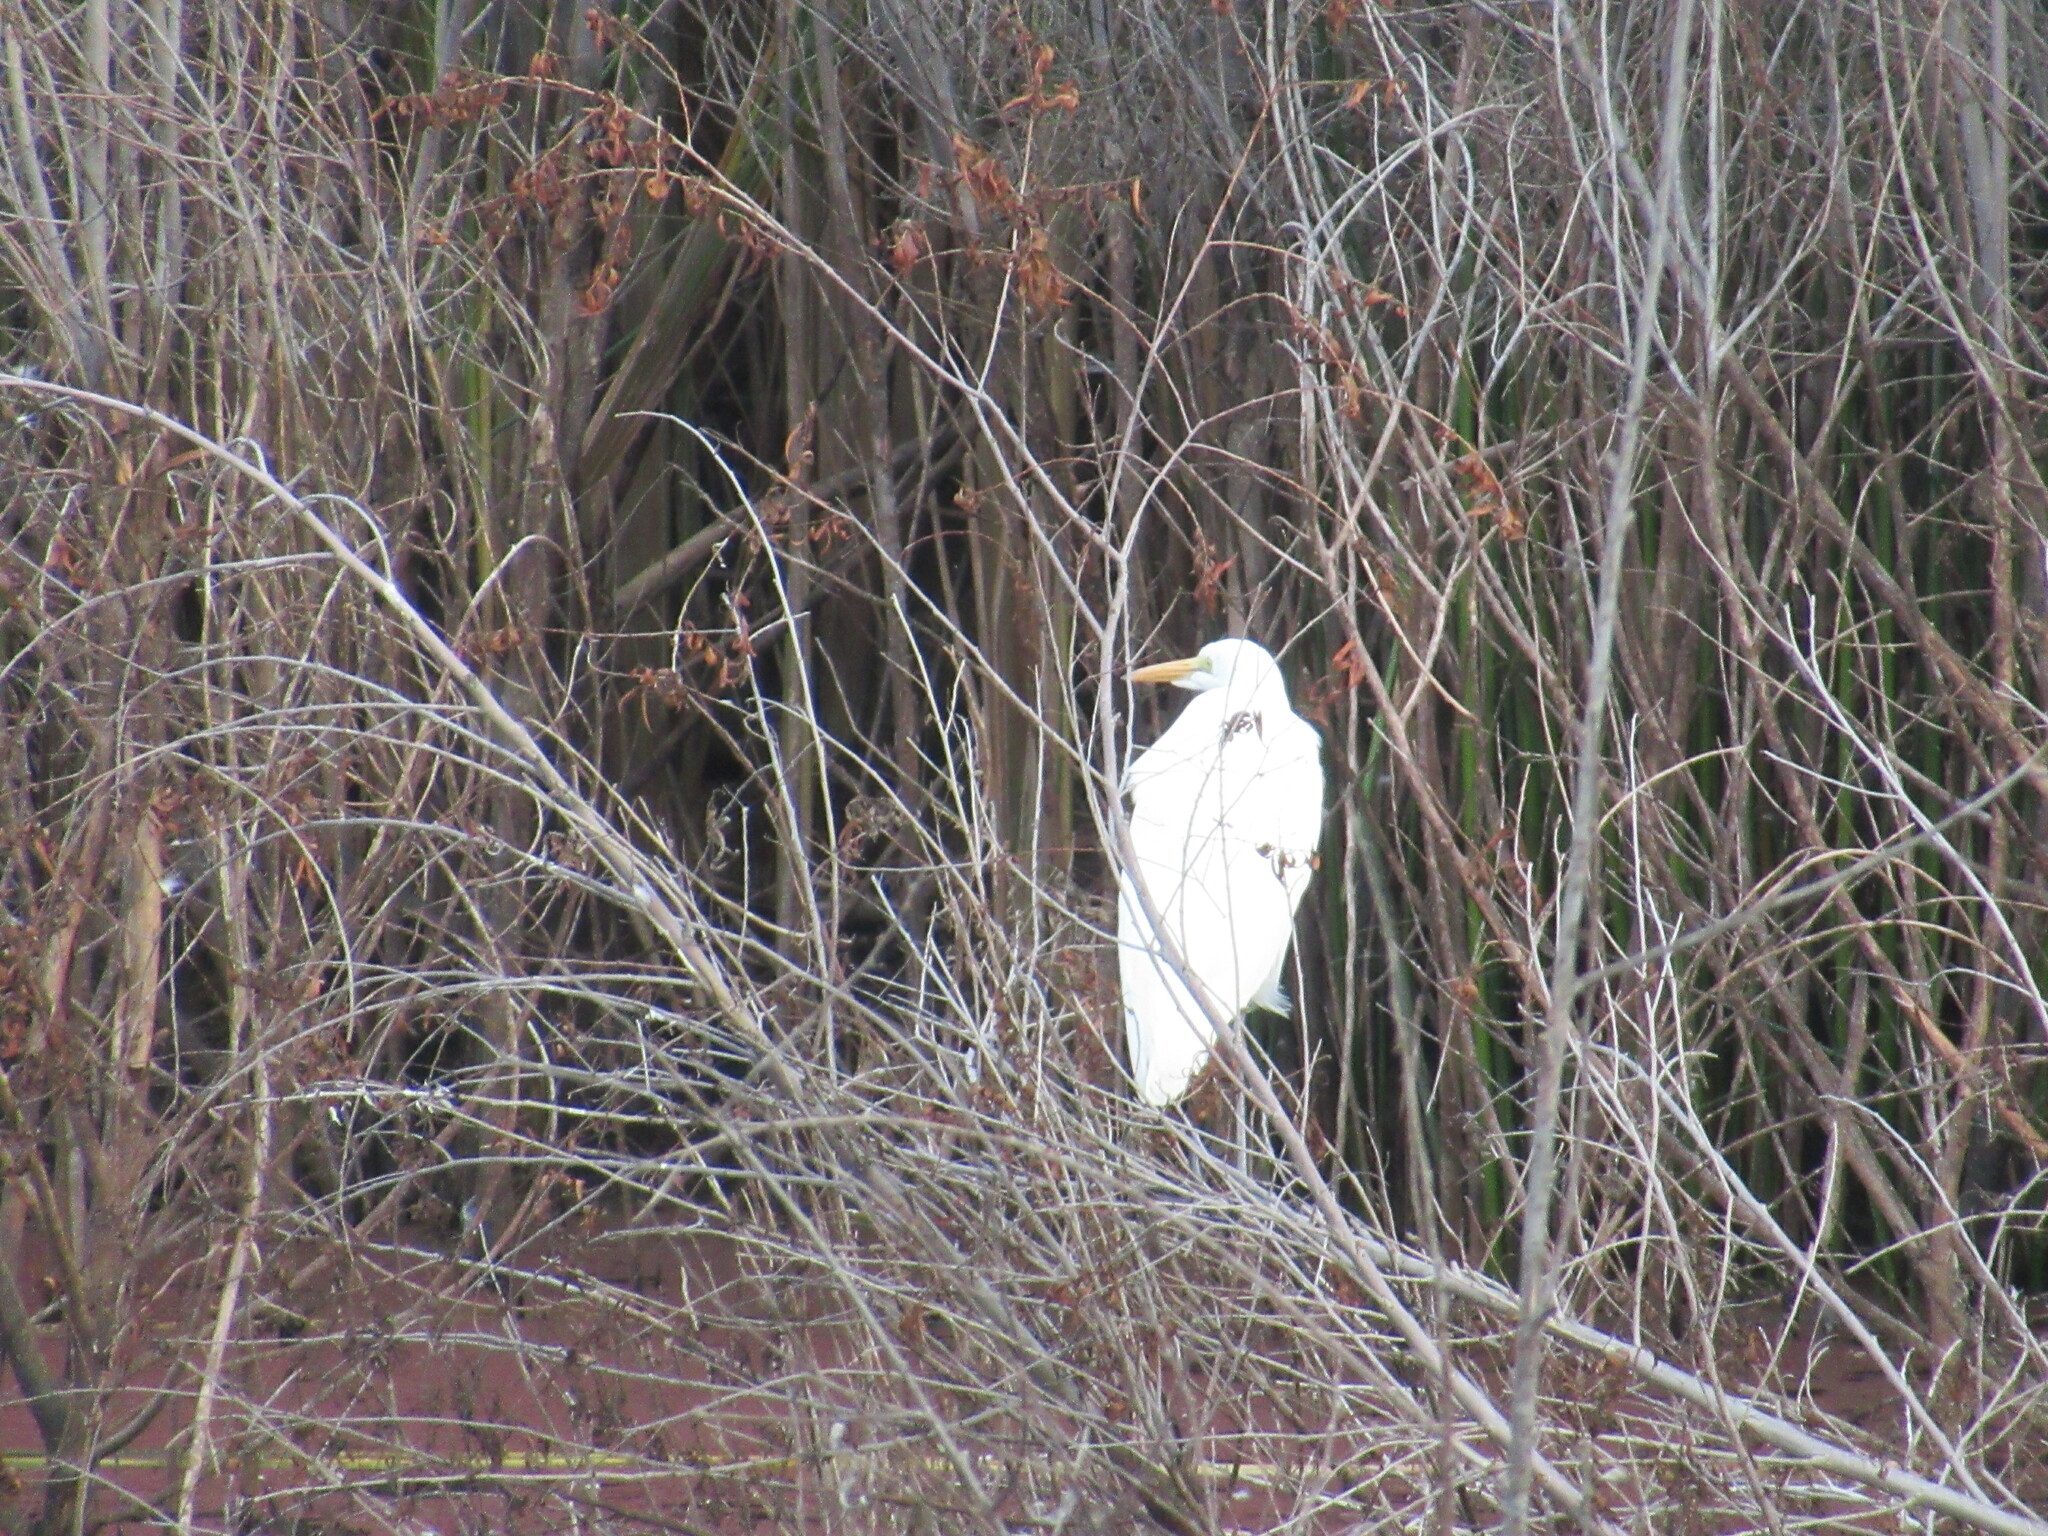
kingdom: Animalia
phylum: Chordata
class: Aves
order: Pelecaniformes
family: Ardeidae
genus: Ardea
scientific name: Ardea alba
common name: Great egret
